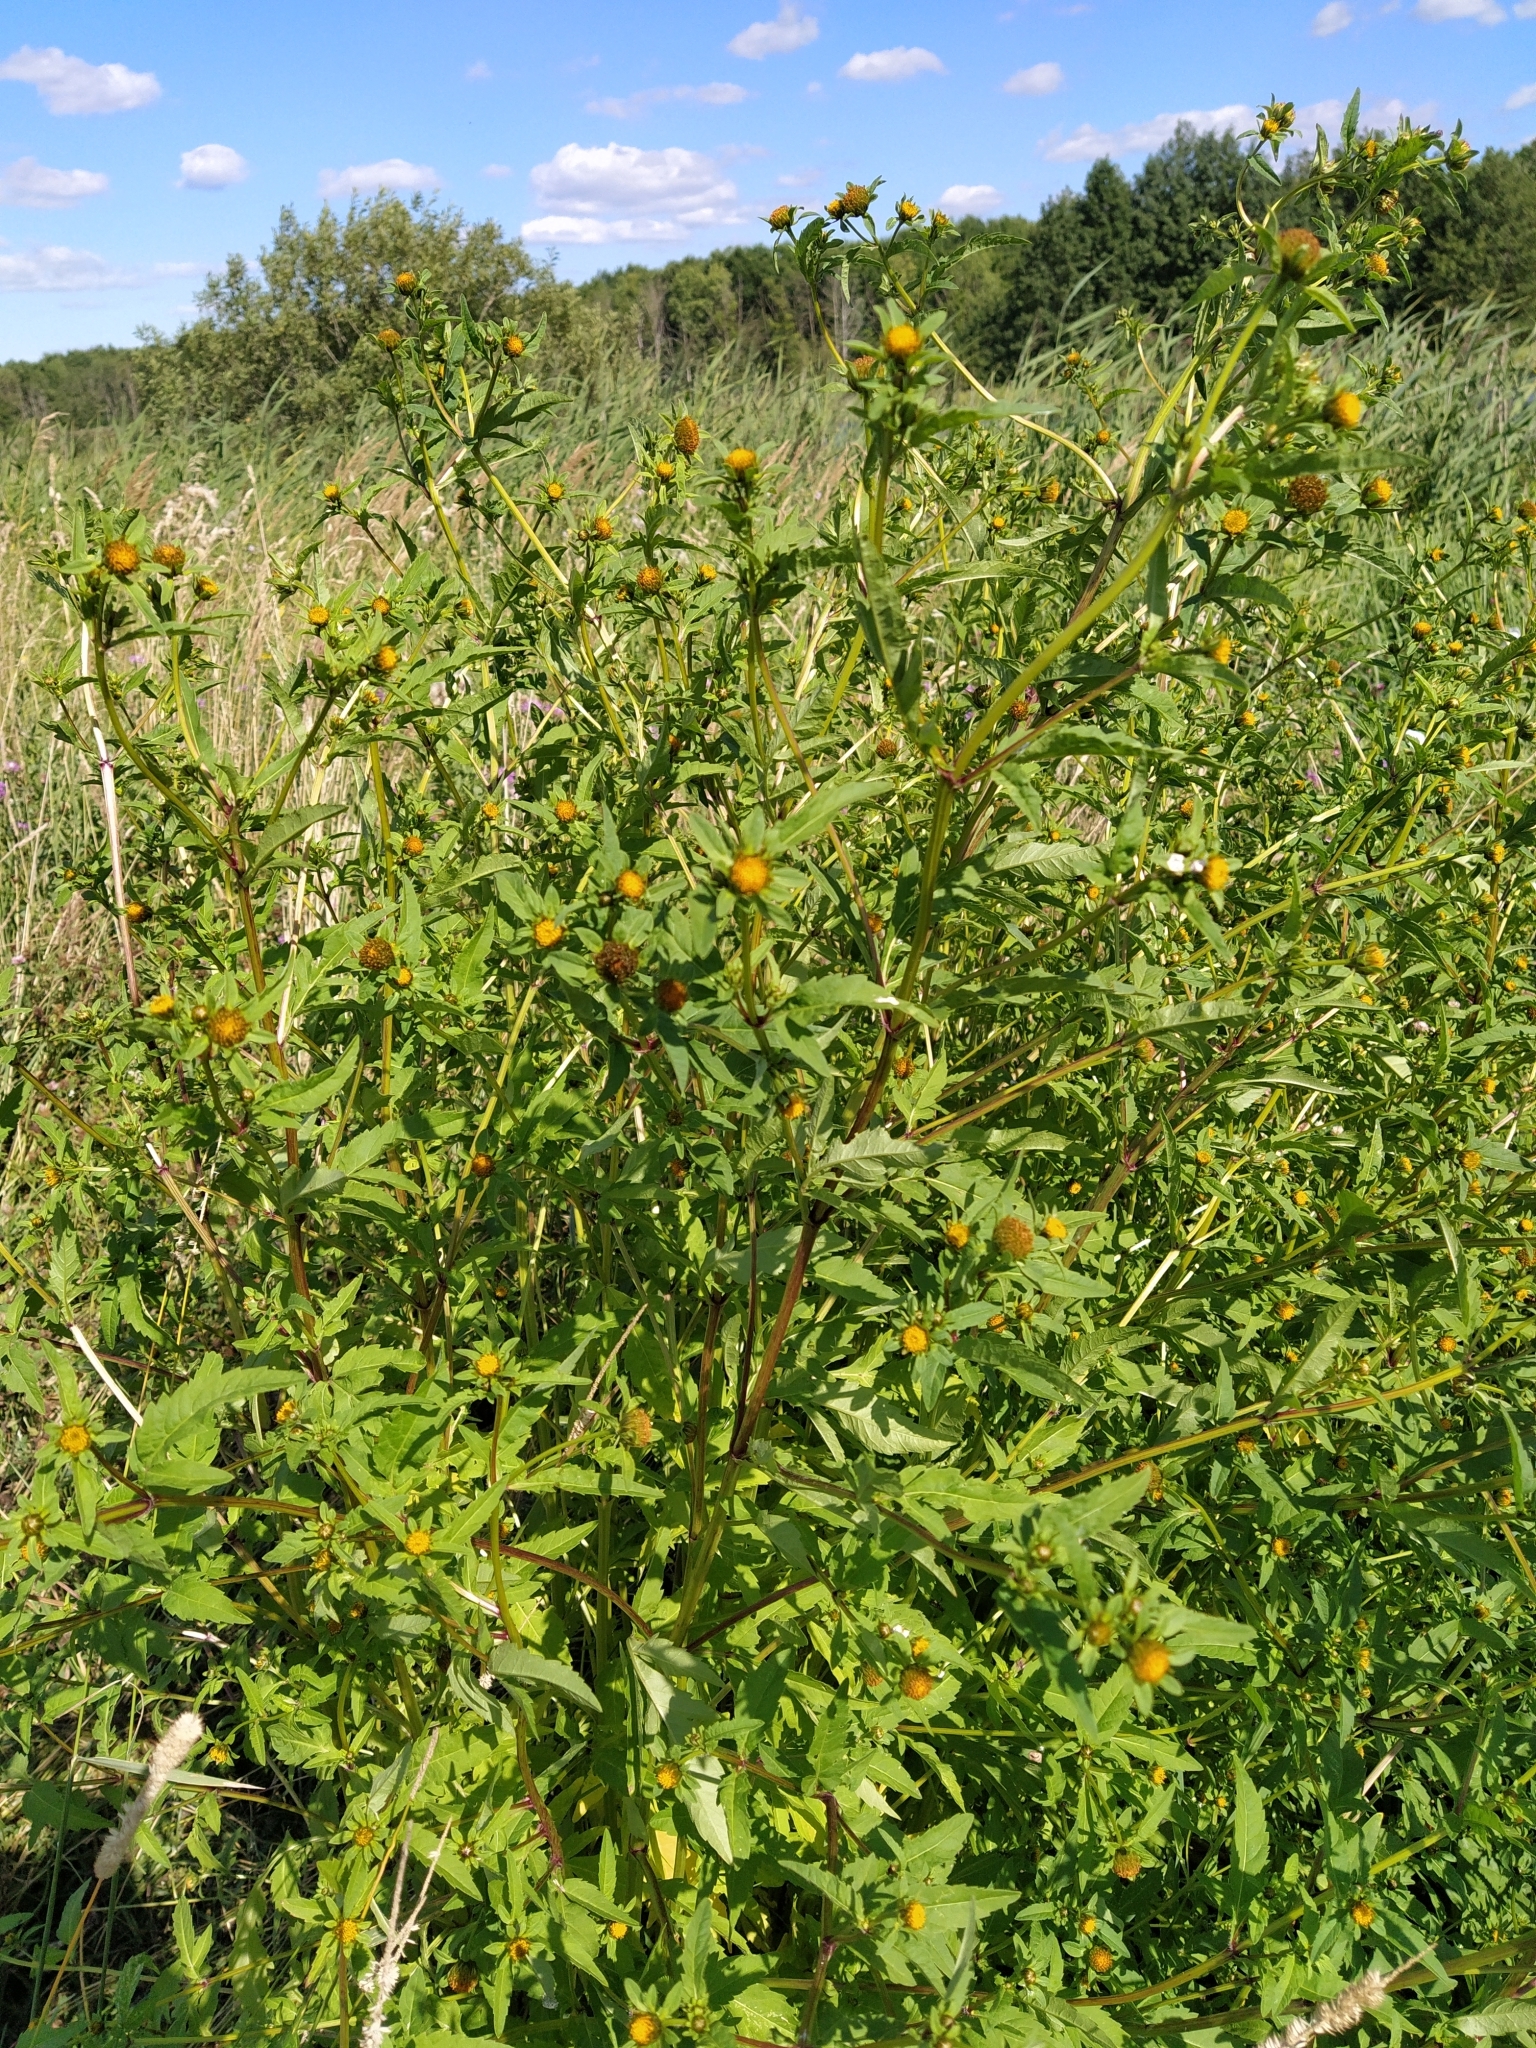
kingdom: Plantae
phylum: Tracheophyta
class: Magnoliopsida
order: Asterales
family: Asteraceae
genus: Bidens
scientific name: Bidens tripartita
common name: Trifid bur-marigold
